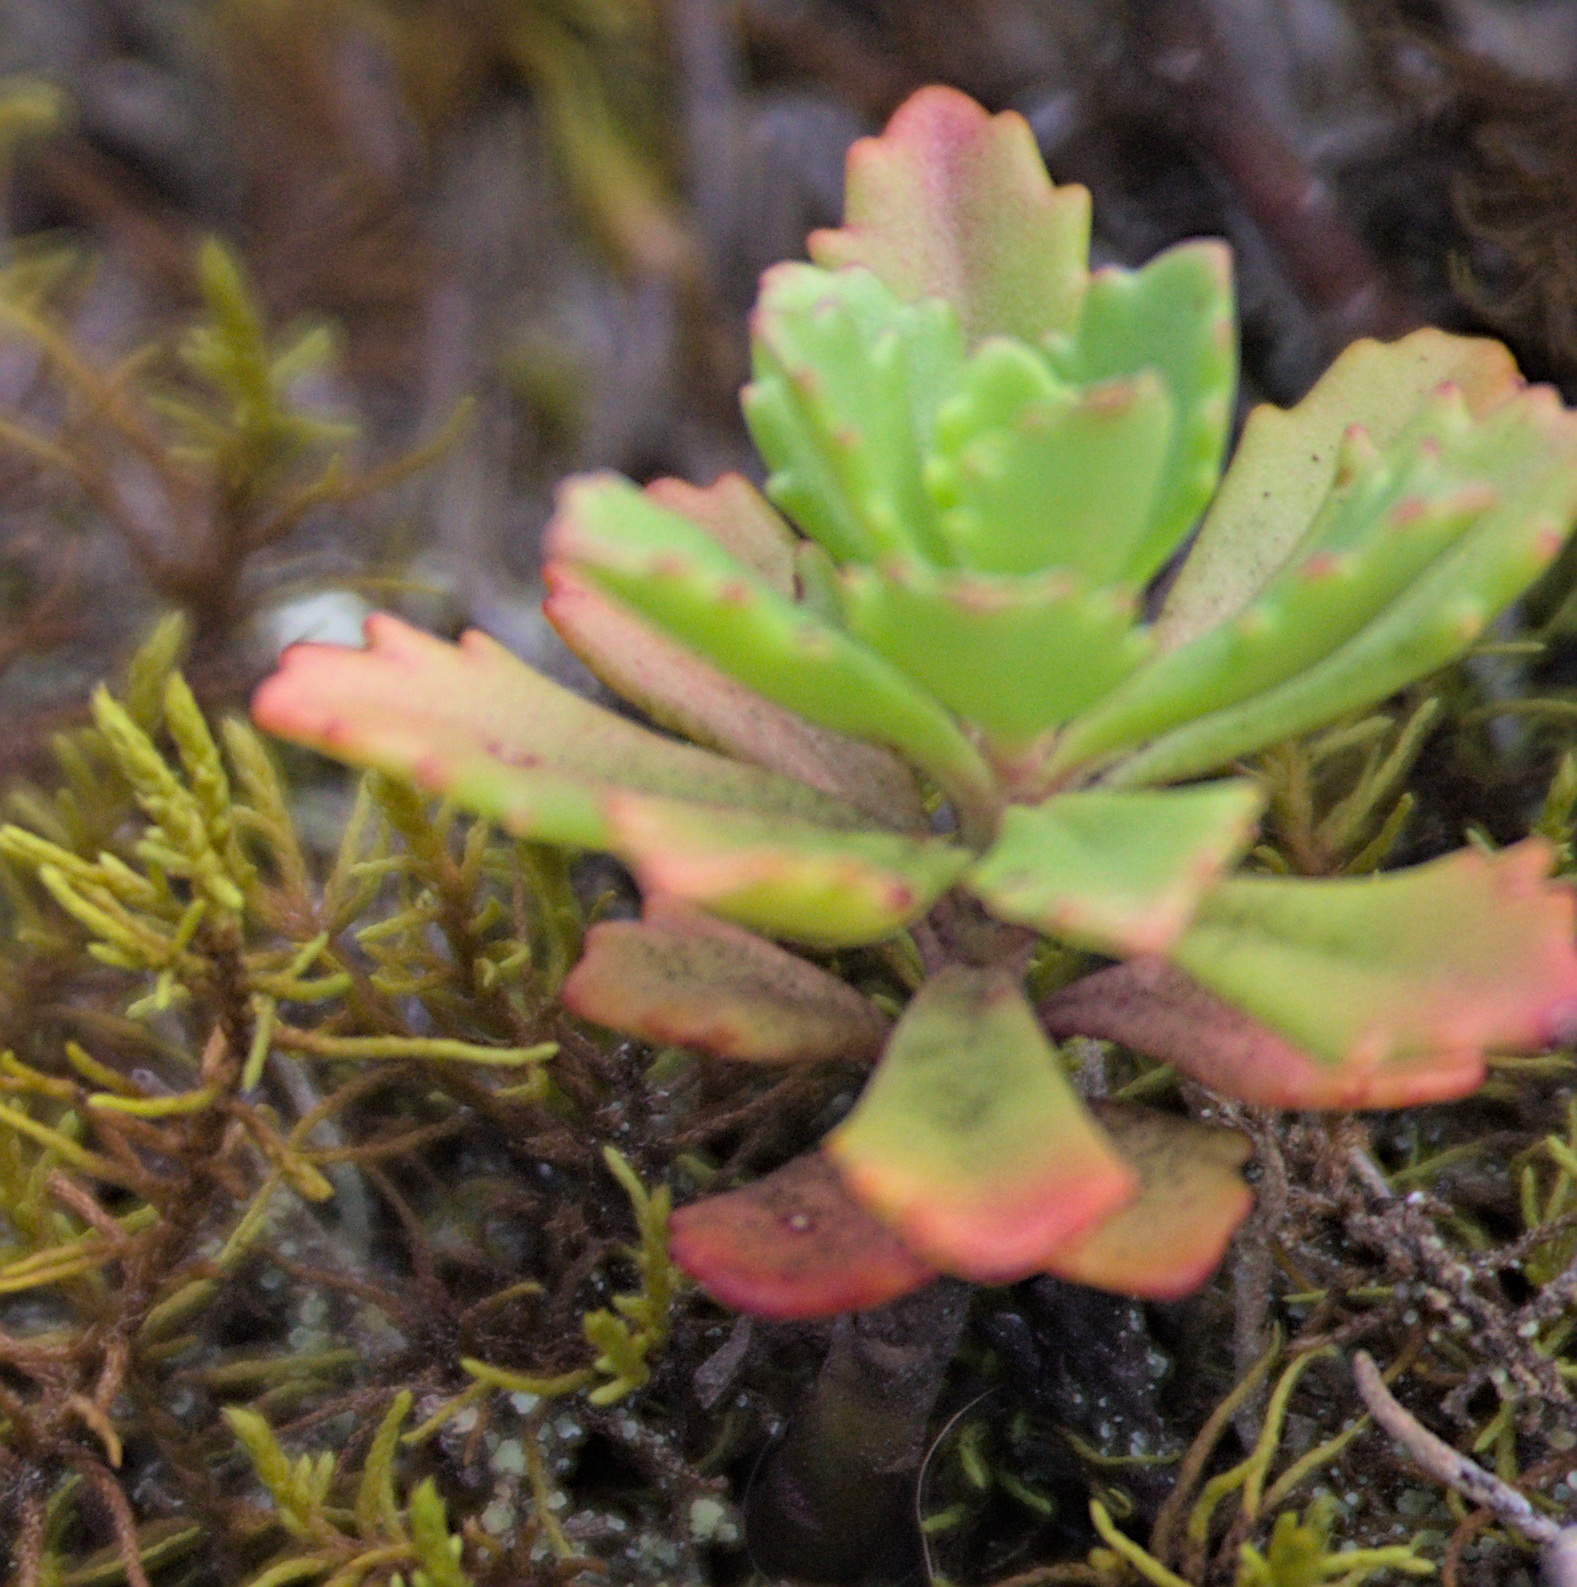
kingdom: Plantae
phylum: Tracheophyta
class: Magnoliopsida
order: Saxifragales
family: Crassulaceae
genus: Phedimus
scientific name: Phedimus hybridus
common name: Hybrid stonecrop
